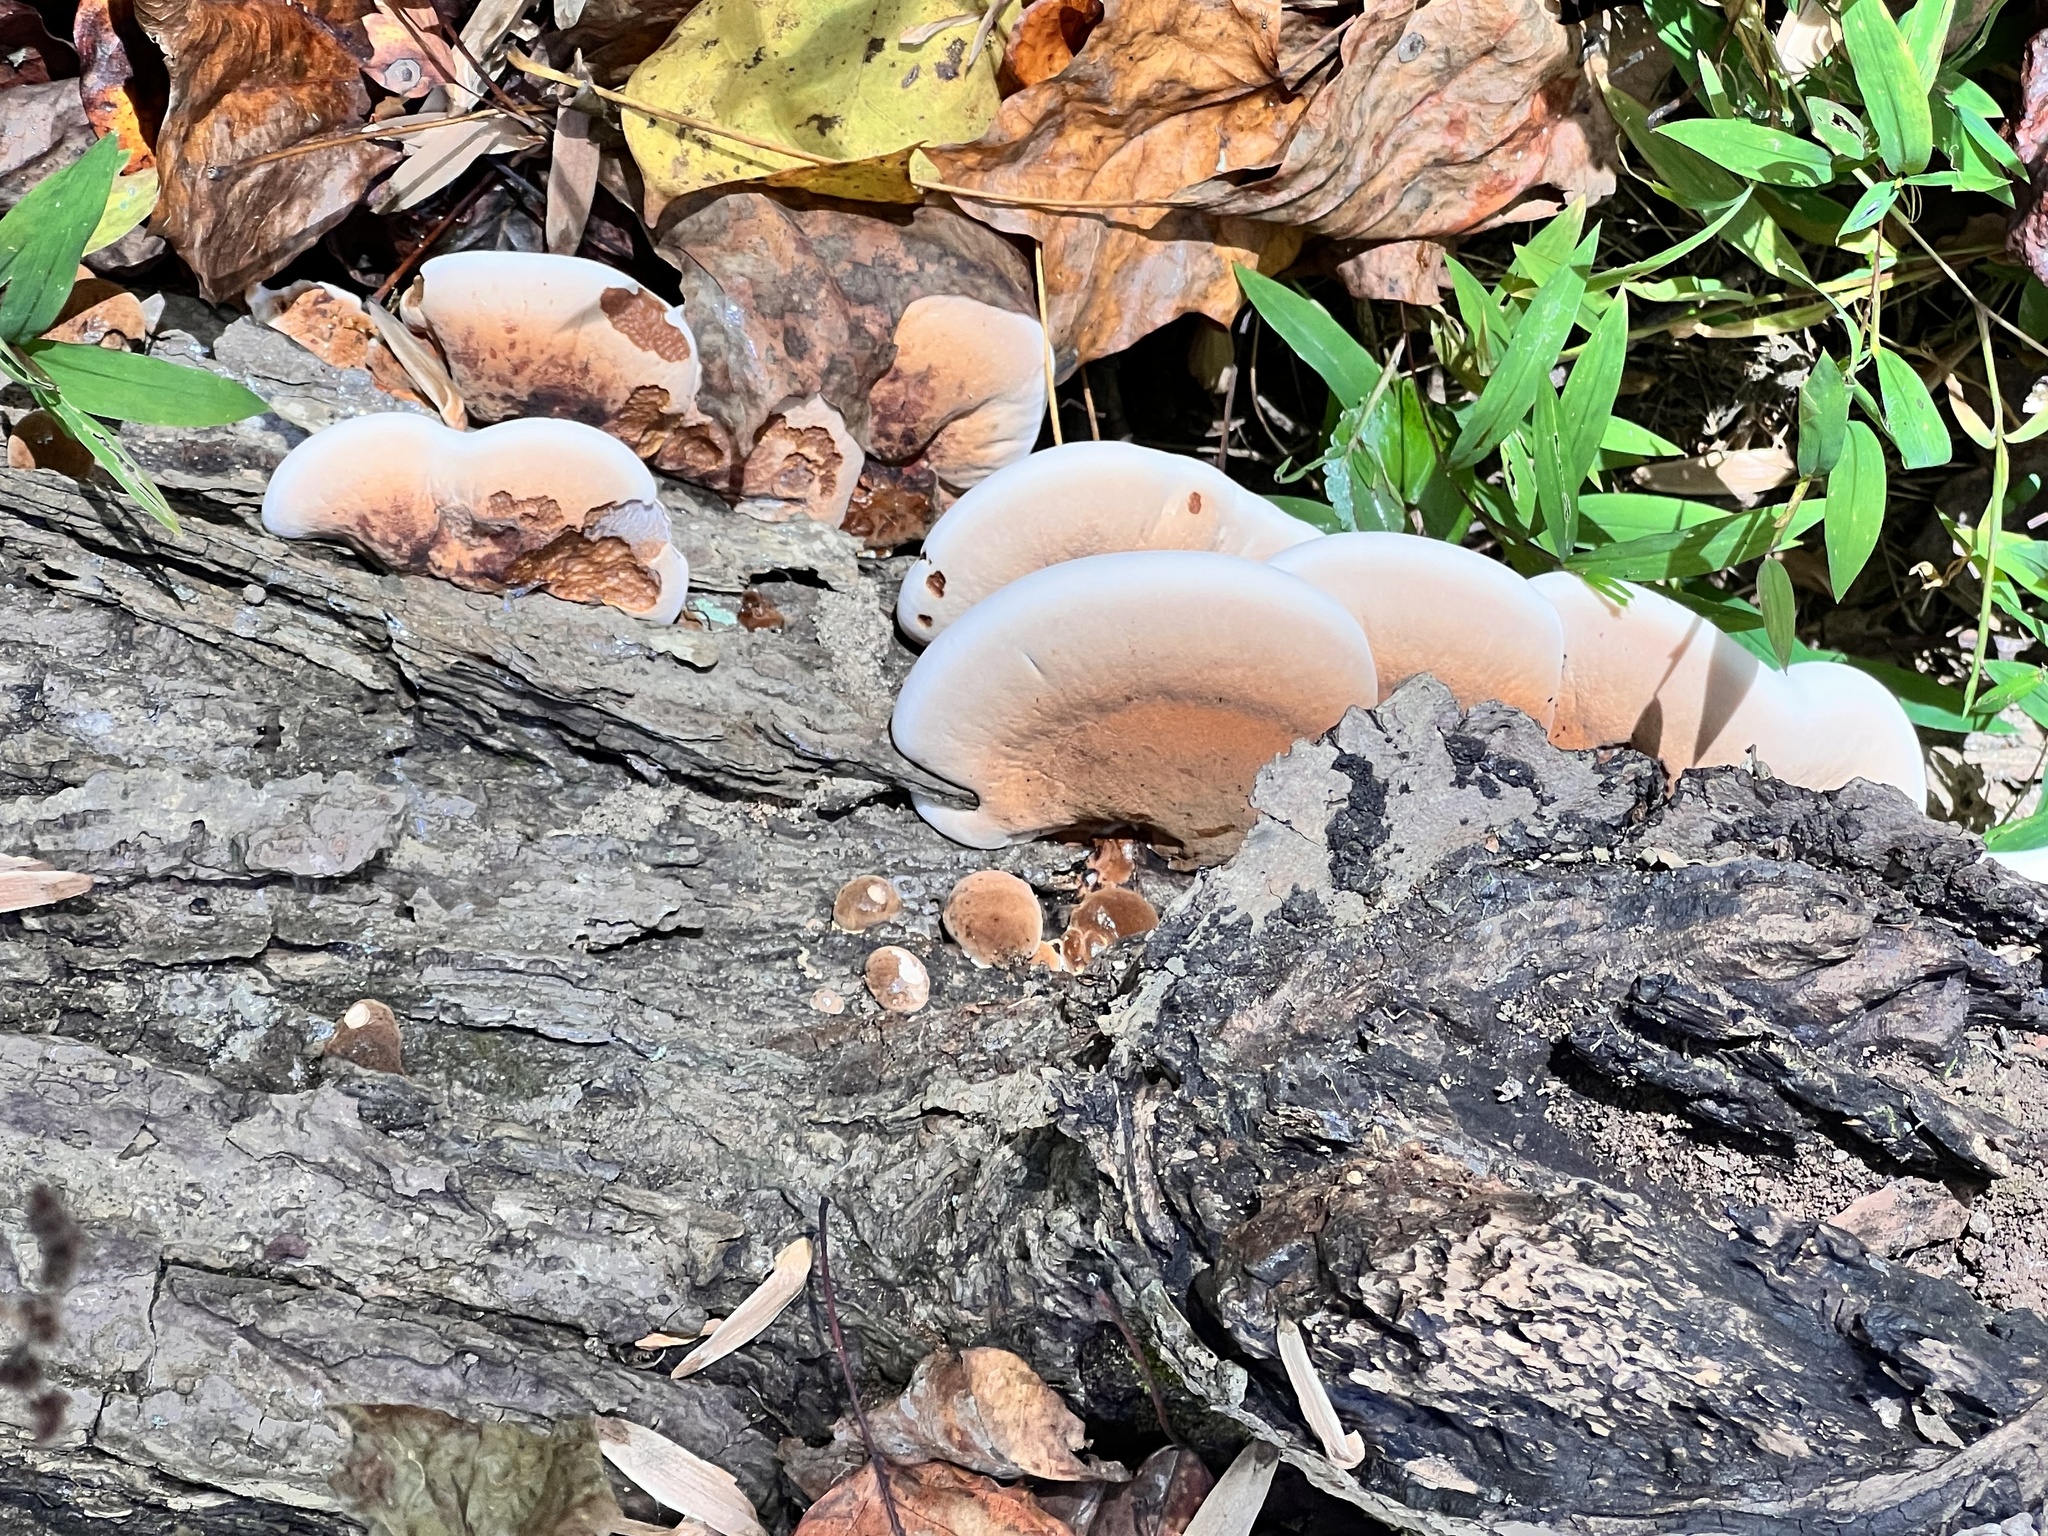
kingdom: Fungi
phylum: Basidiomycota
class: Agaricomycetes
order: Polyporales
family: Ischnodermataceae
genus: Ischnoderma
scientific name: Ischnoderma resinosum
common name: Resinous polypore
